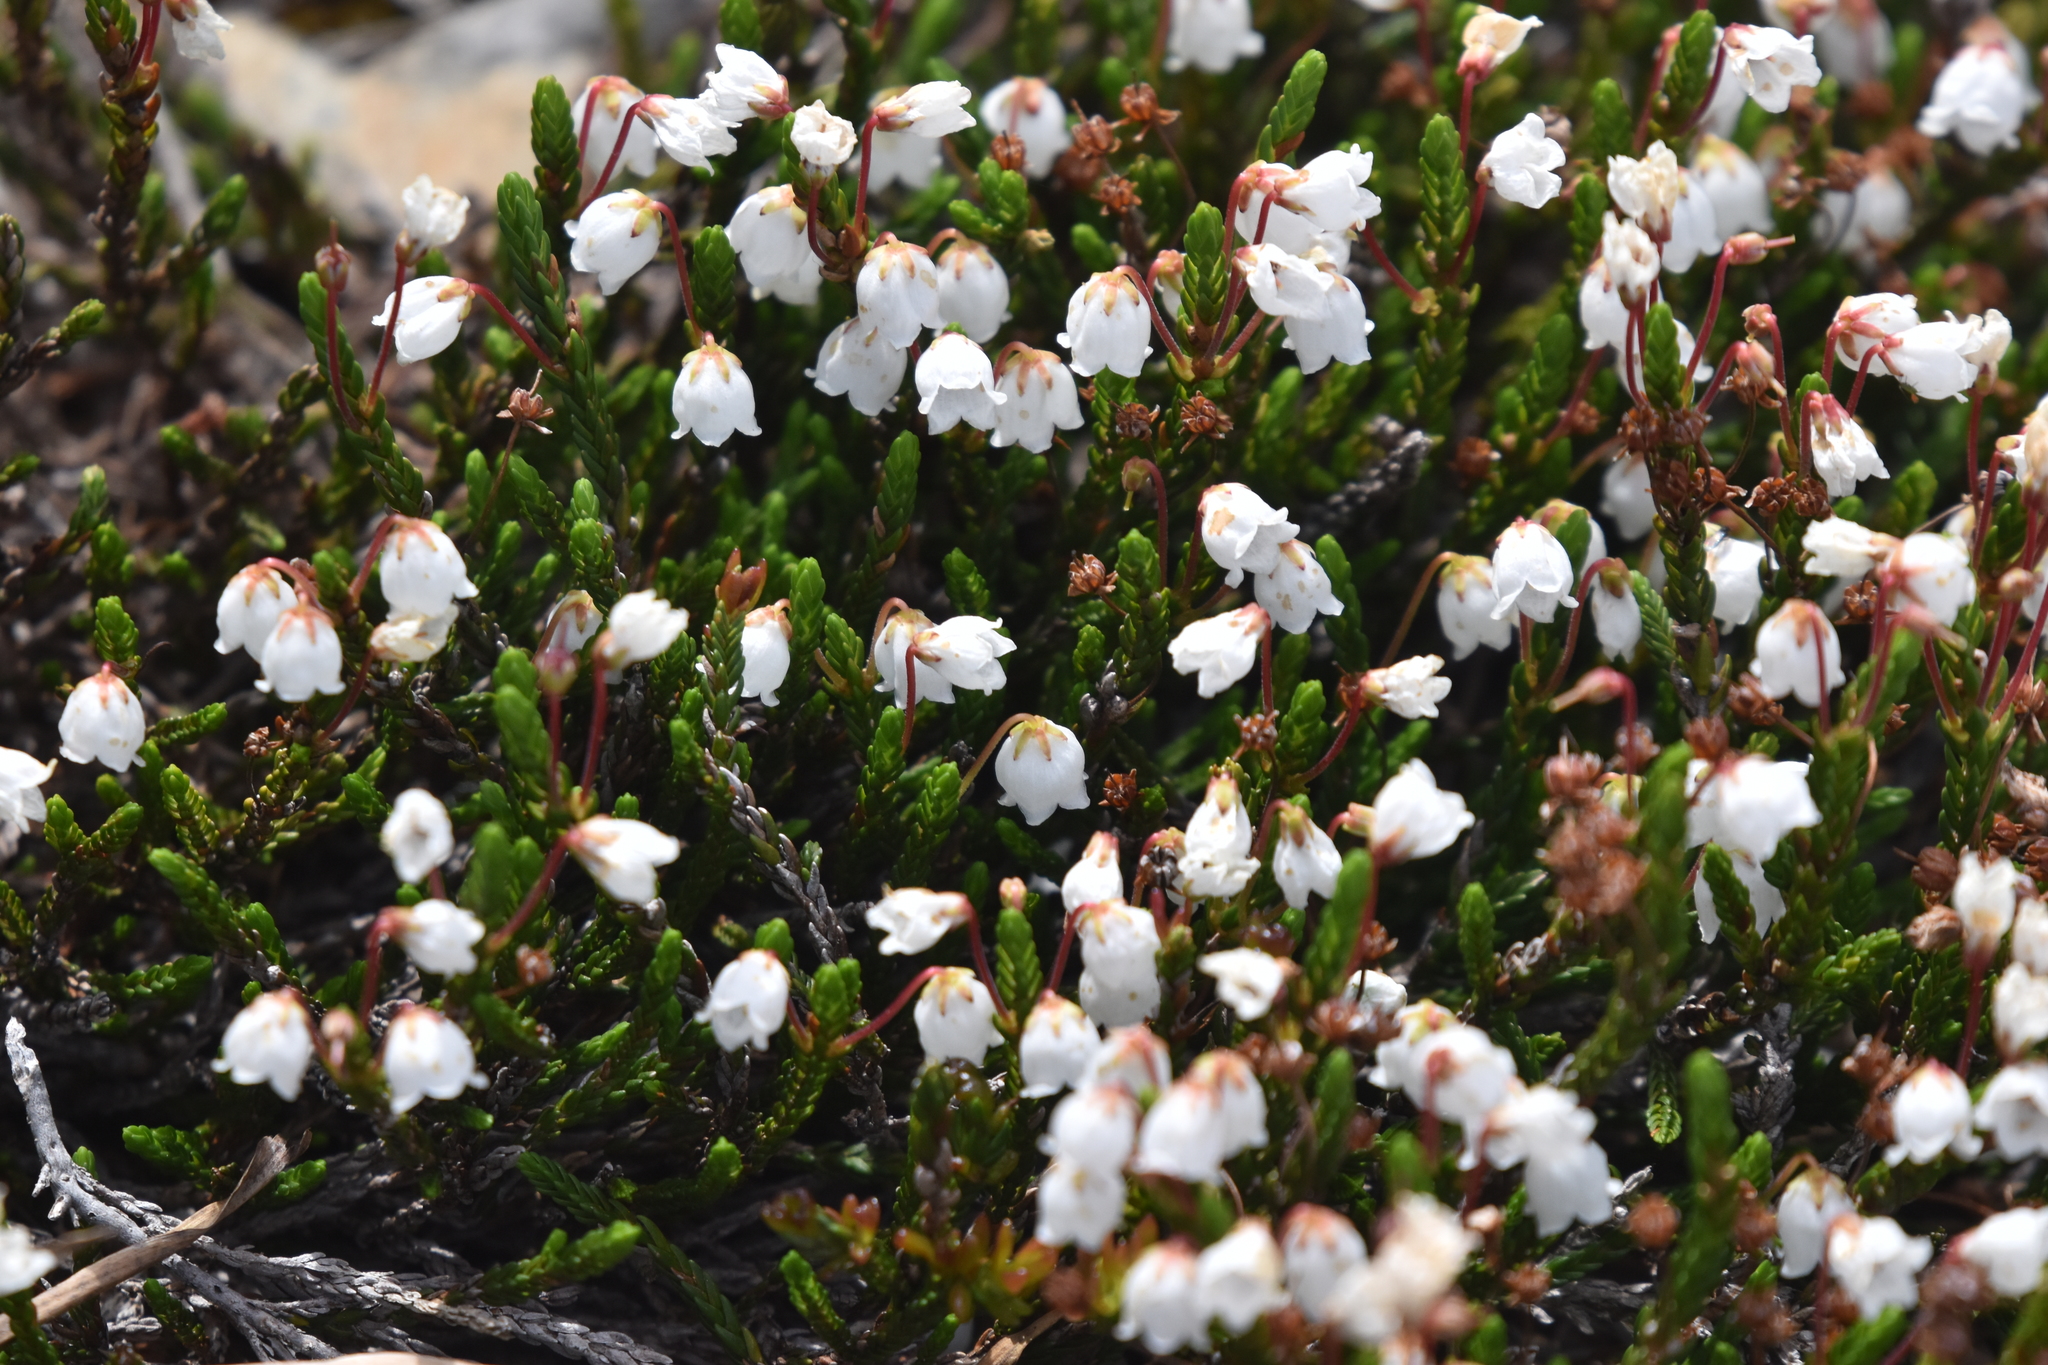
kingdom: Plantae
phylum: Tracheophyta
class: Magnoliopsida
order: Ericales
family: Ericaceae
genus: Cassiope
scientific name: Cassiope mertensiana
